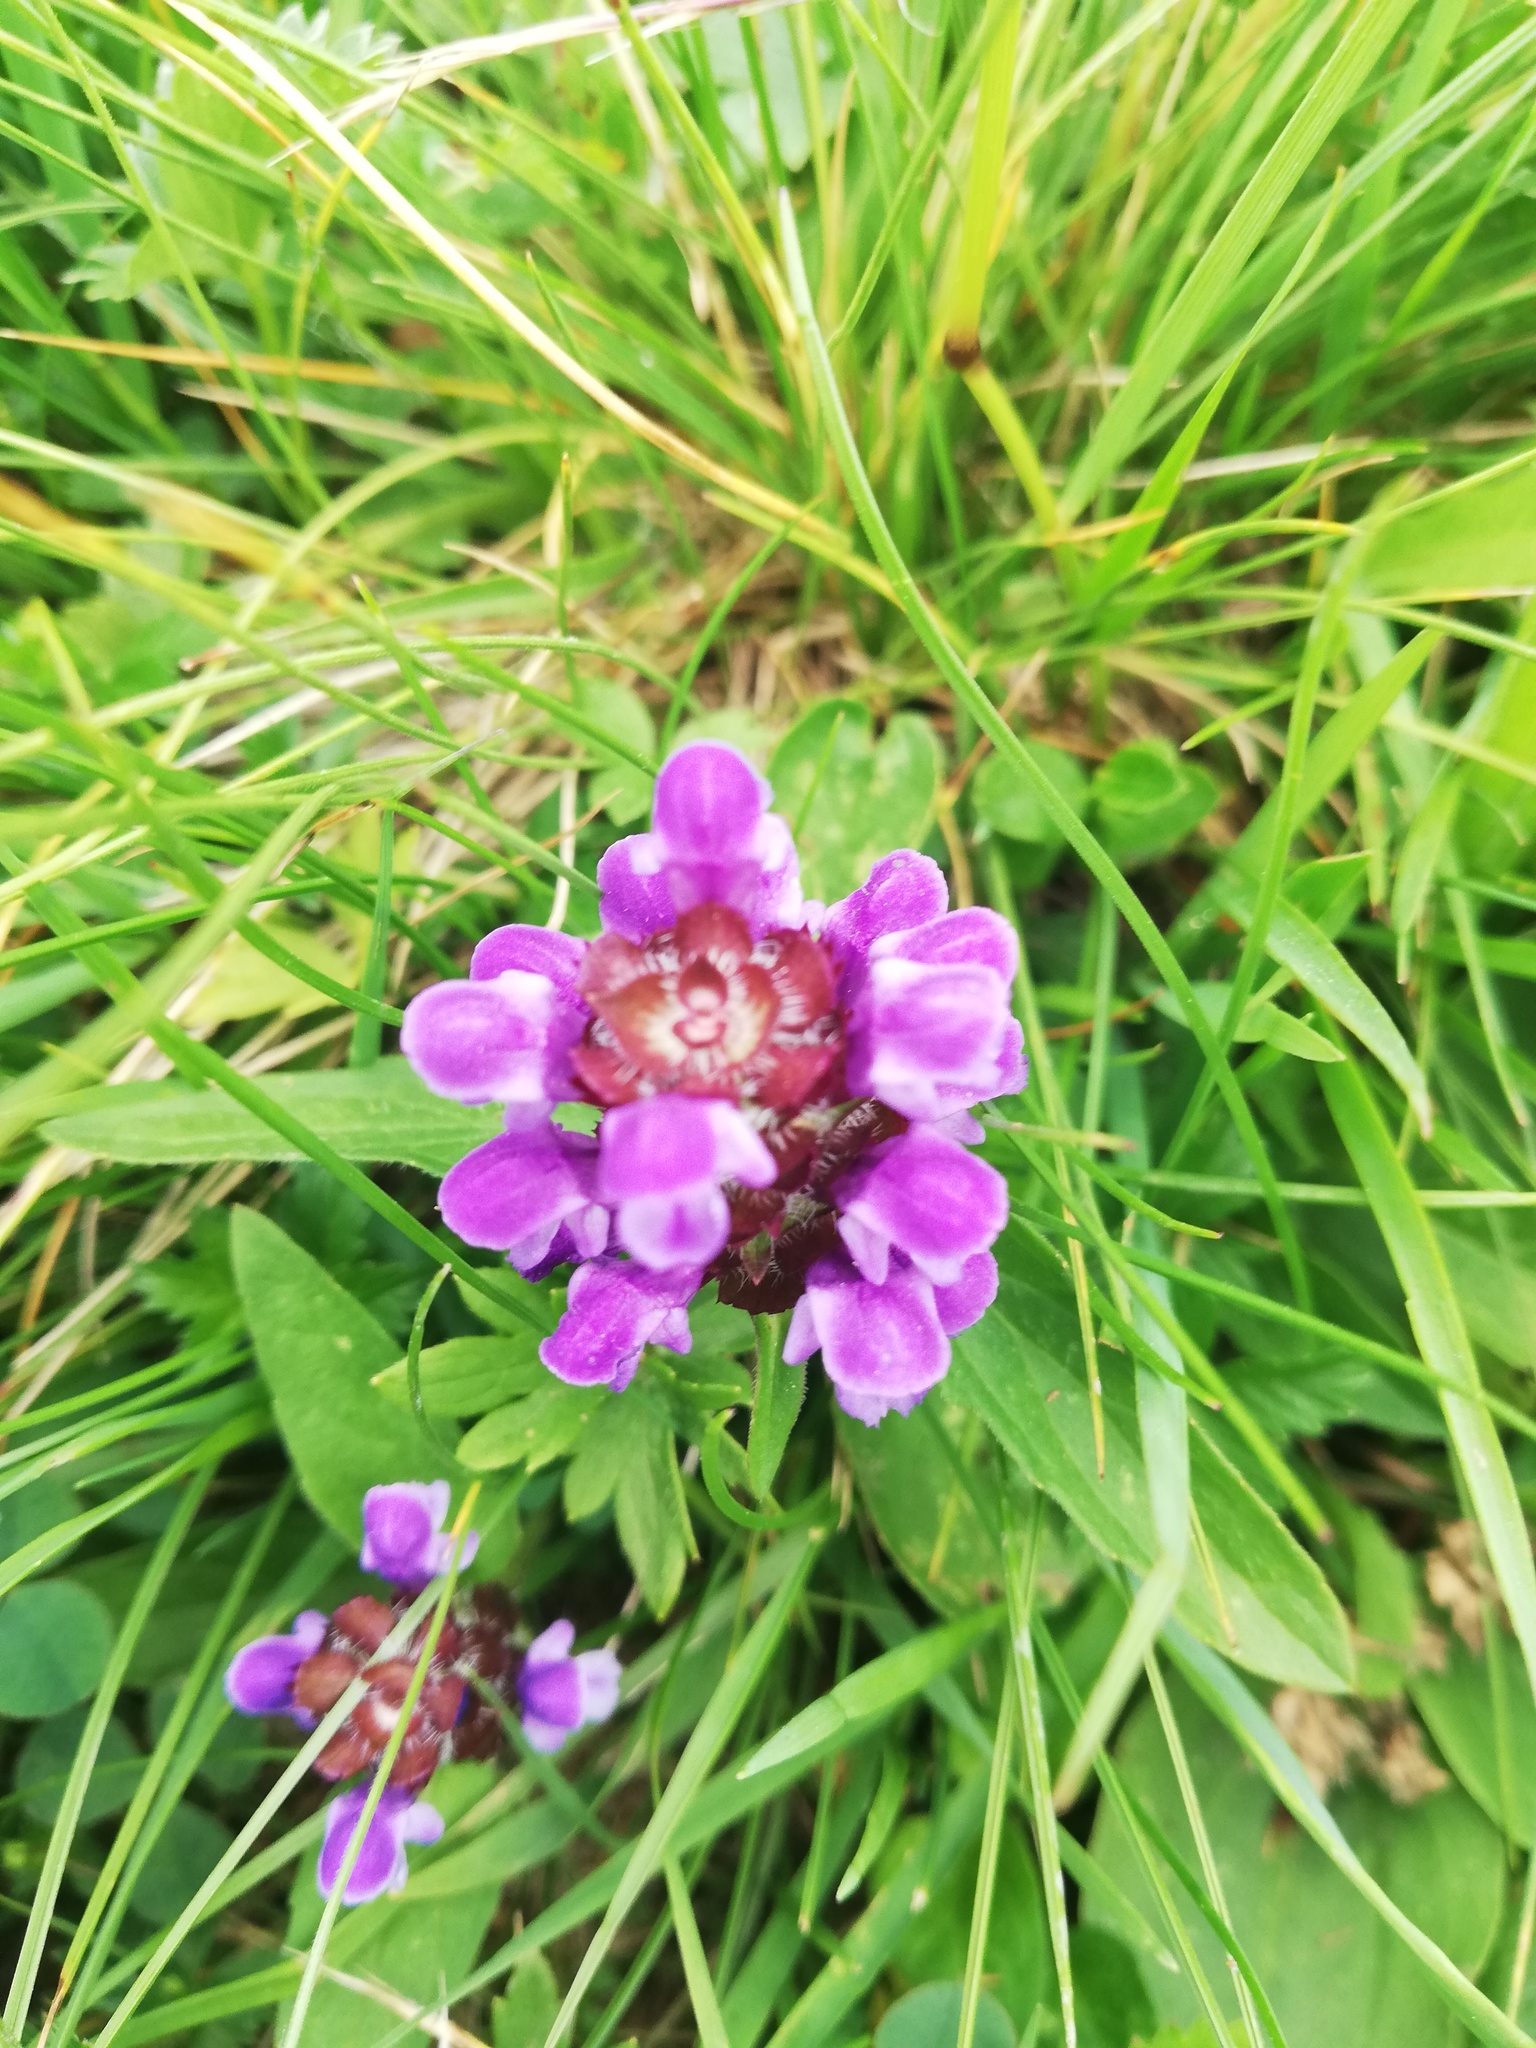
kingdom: Plantae
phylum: Tracheophyta
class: Magnoliopsida
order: Lamiales
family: Lamiaceae
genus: Prunella
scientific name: Prunella vulgaris
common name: Heal-all
